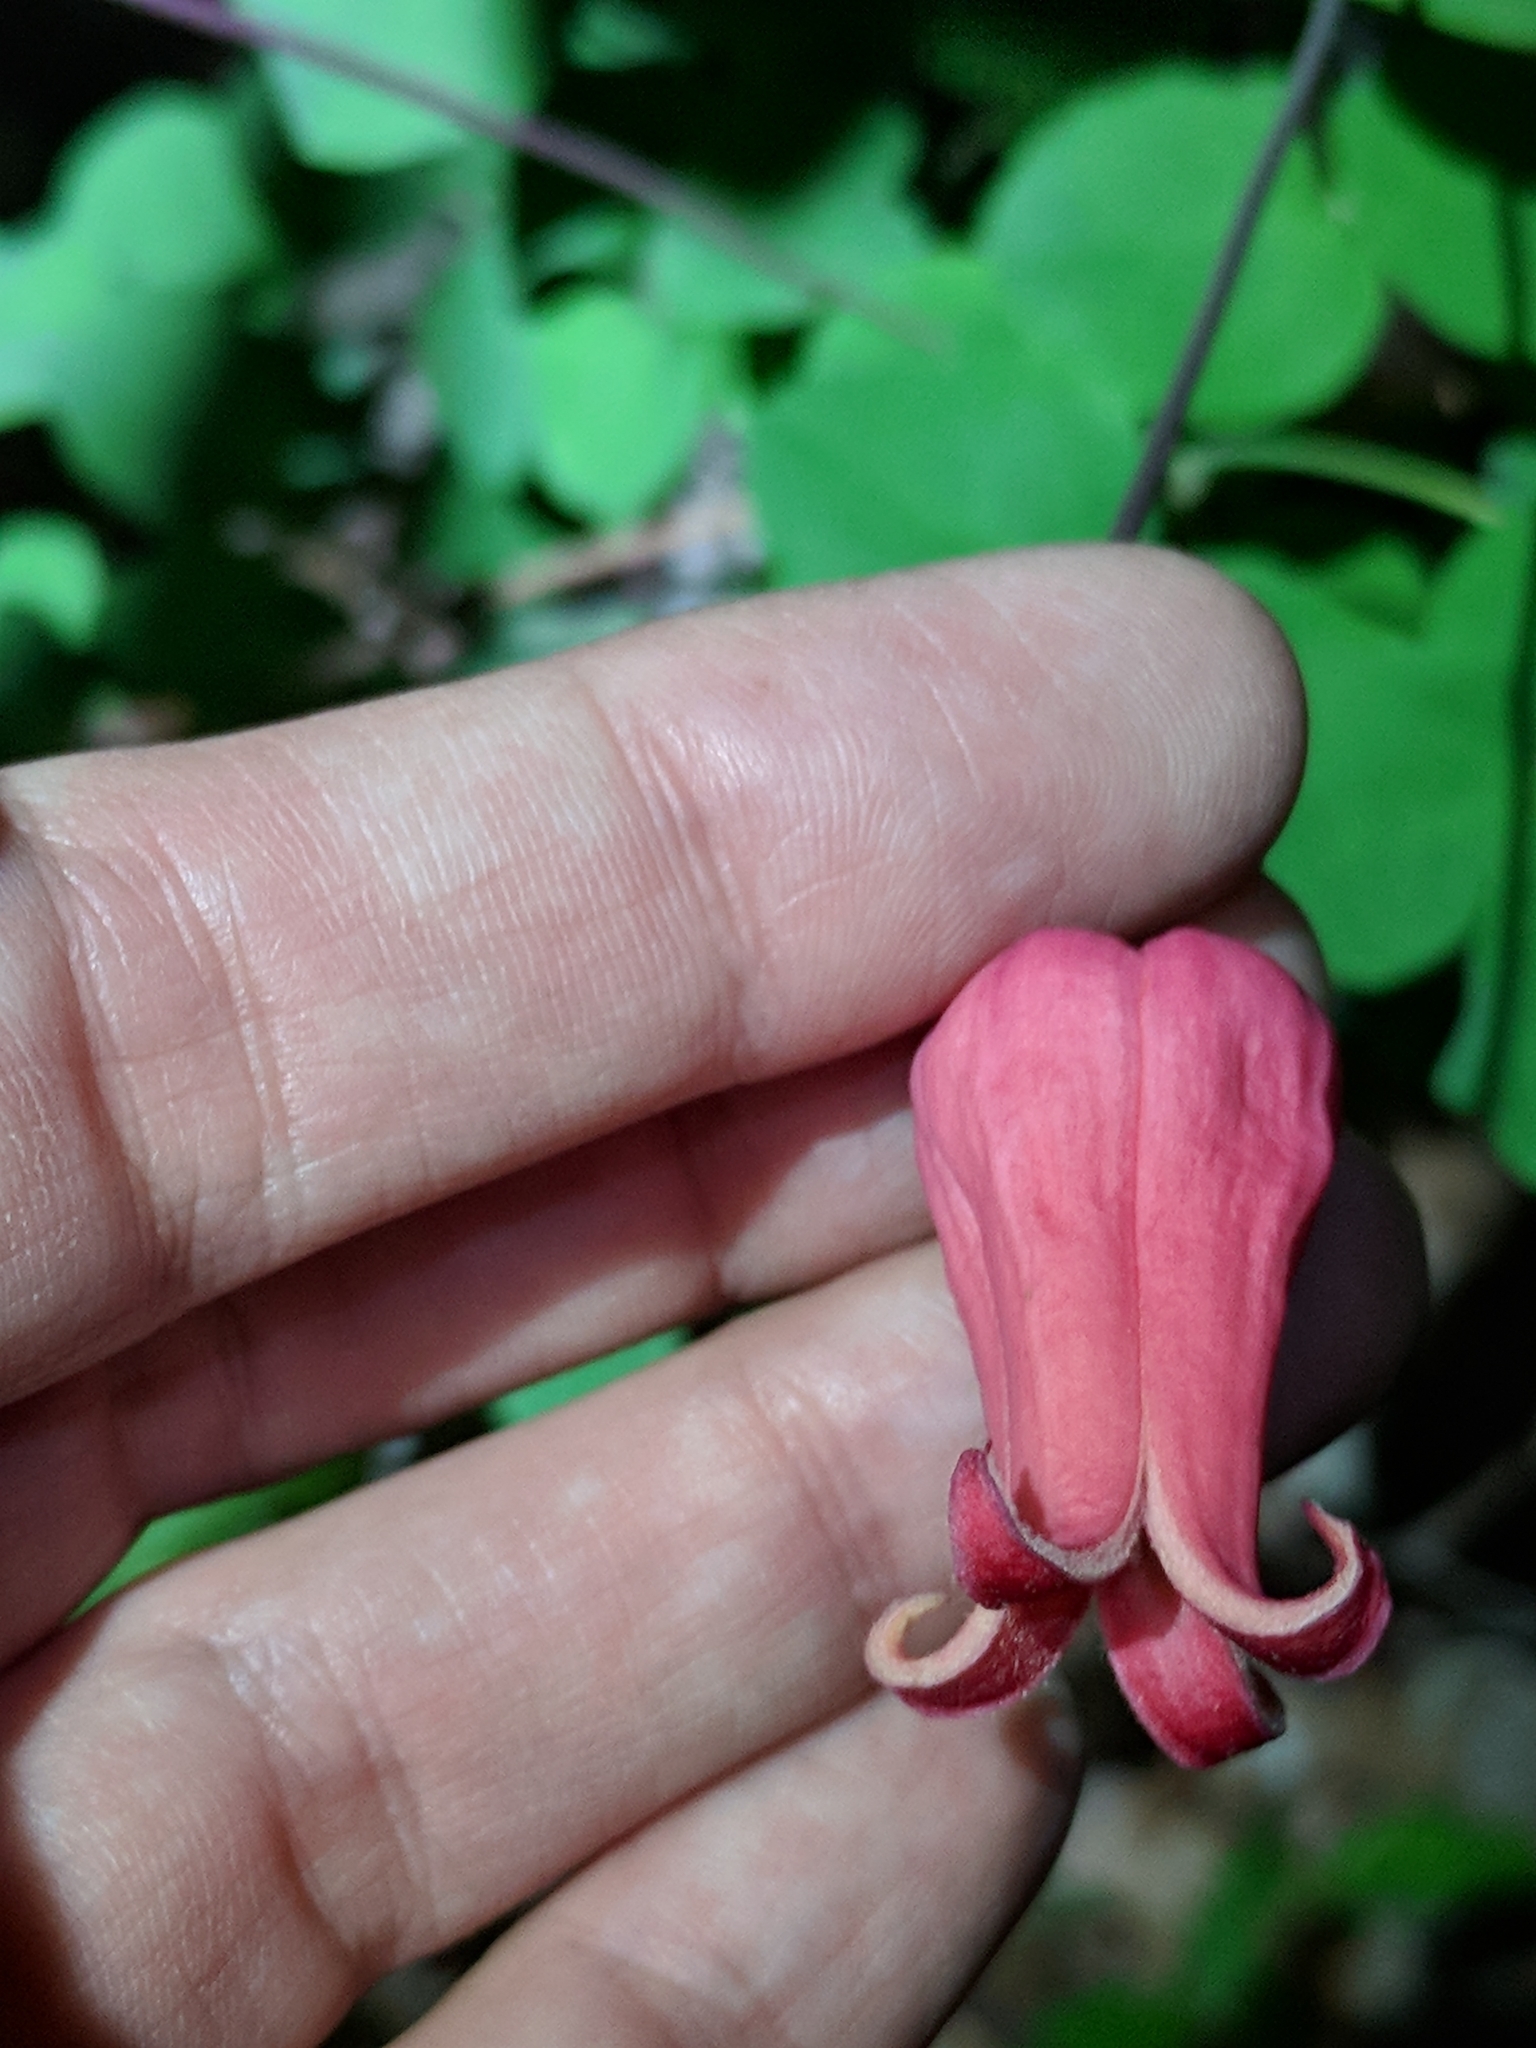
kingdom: Plantae
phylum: Tracheophyta
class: Magnoliopsida
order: Ranunculales
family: Ranunculaceae
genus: Clematis
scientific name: Clematis texensis
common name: Crimson clematis
